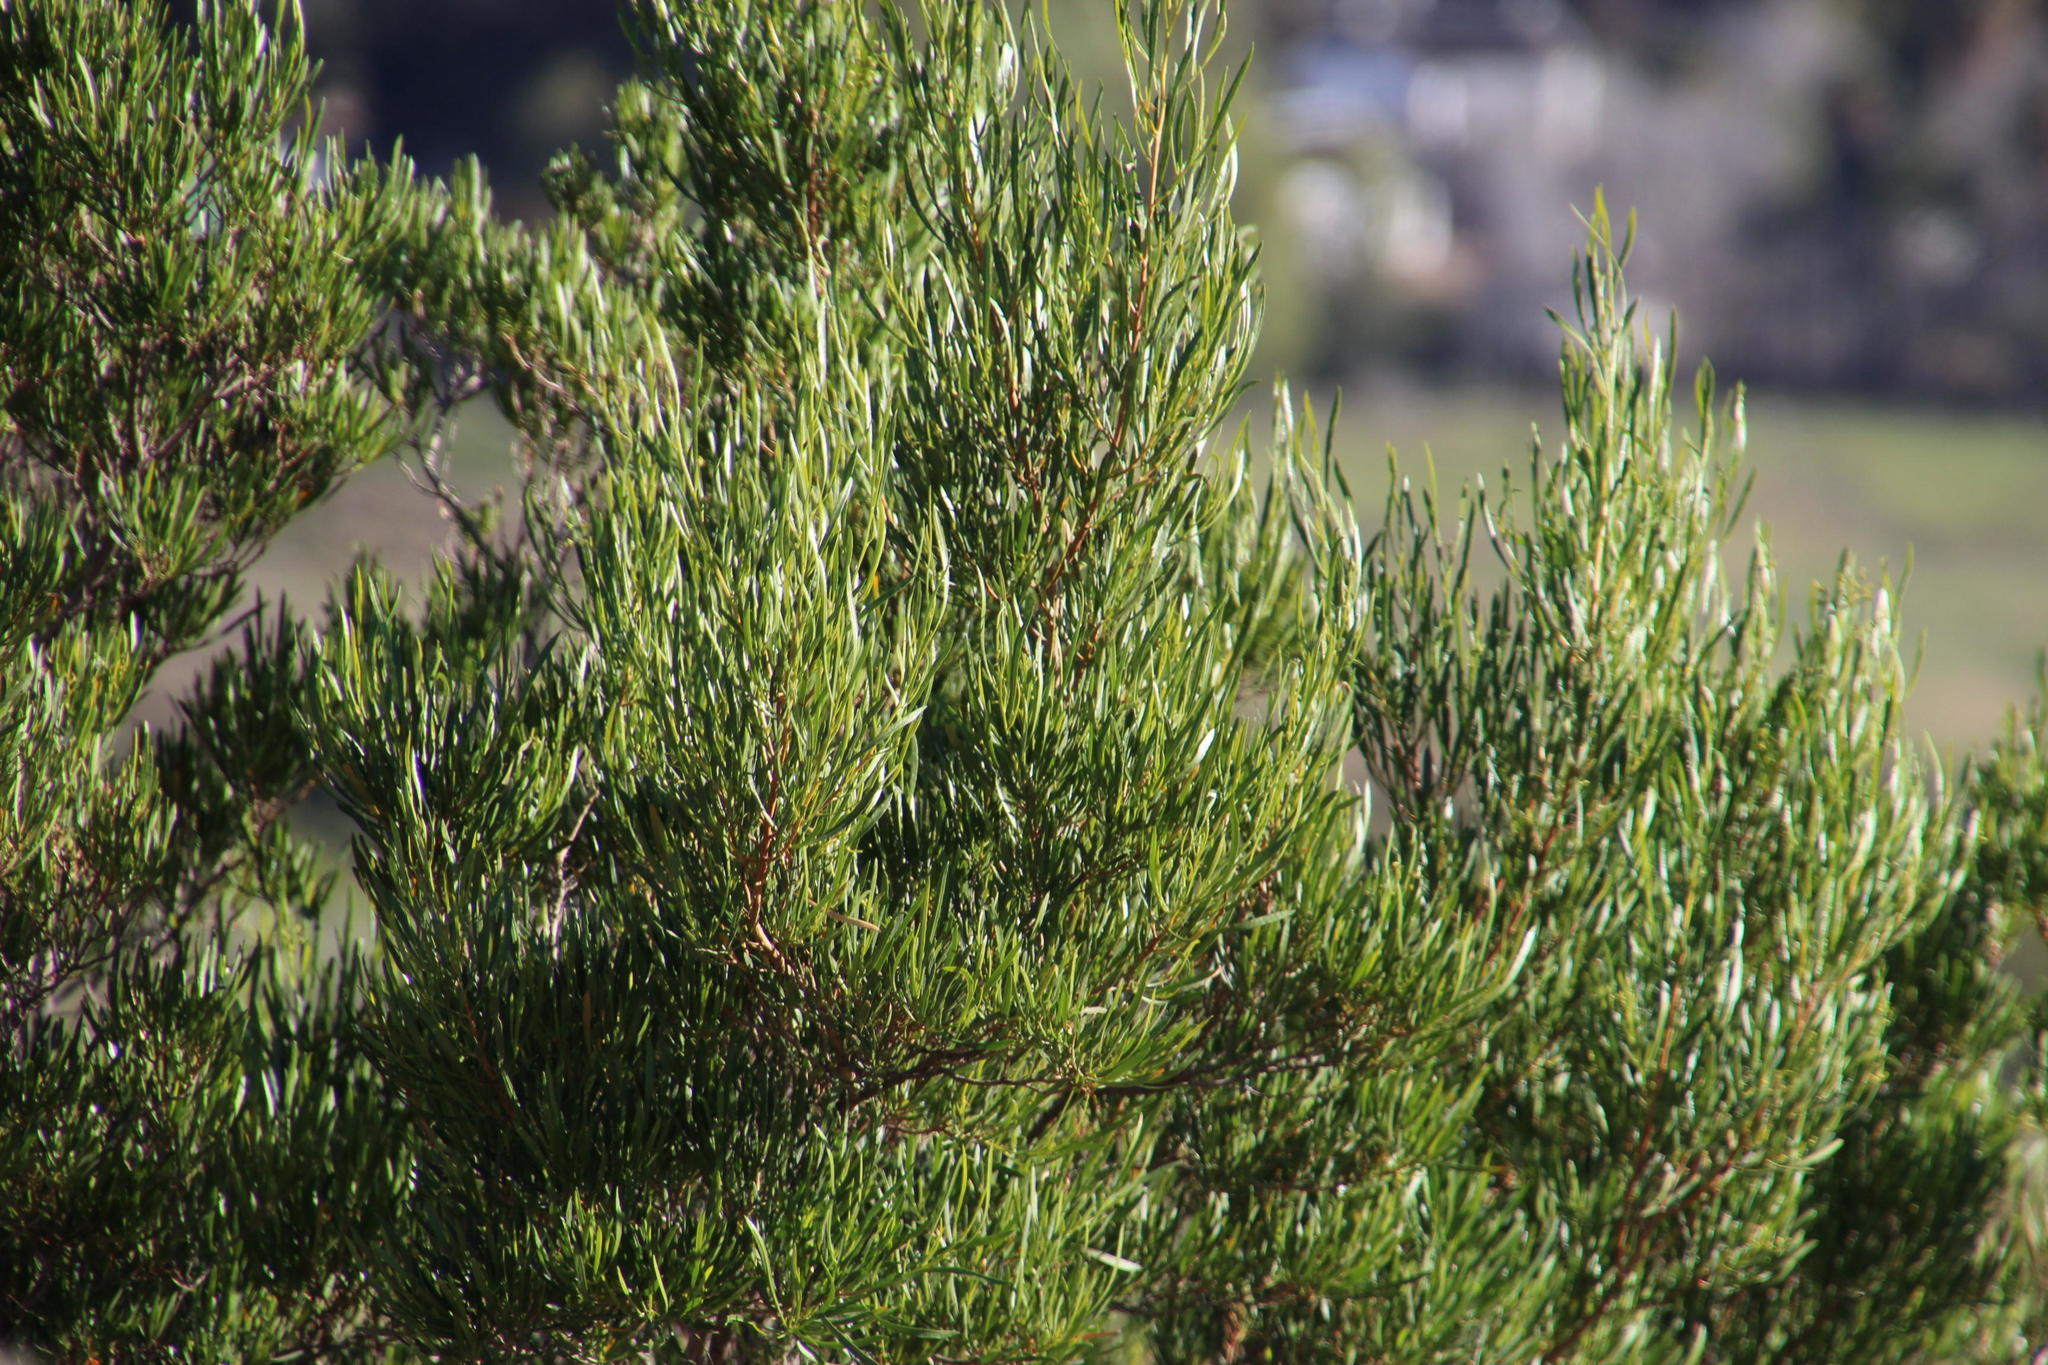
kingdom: Plantae
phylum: Tracheophyta
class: Magnoliopsida
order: Sapindales
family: Sapindaceae
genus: Dodonaea
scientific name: Dodonaea viscosa
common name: Hopbush
